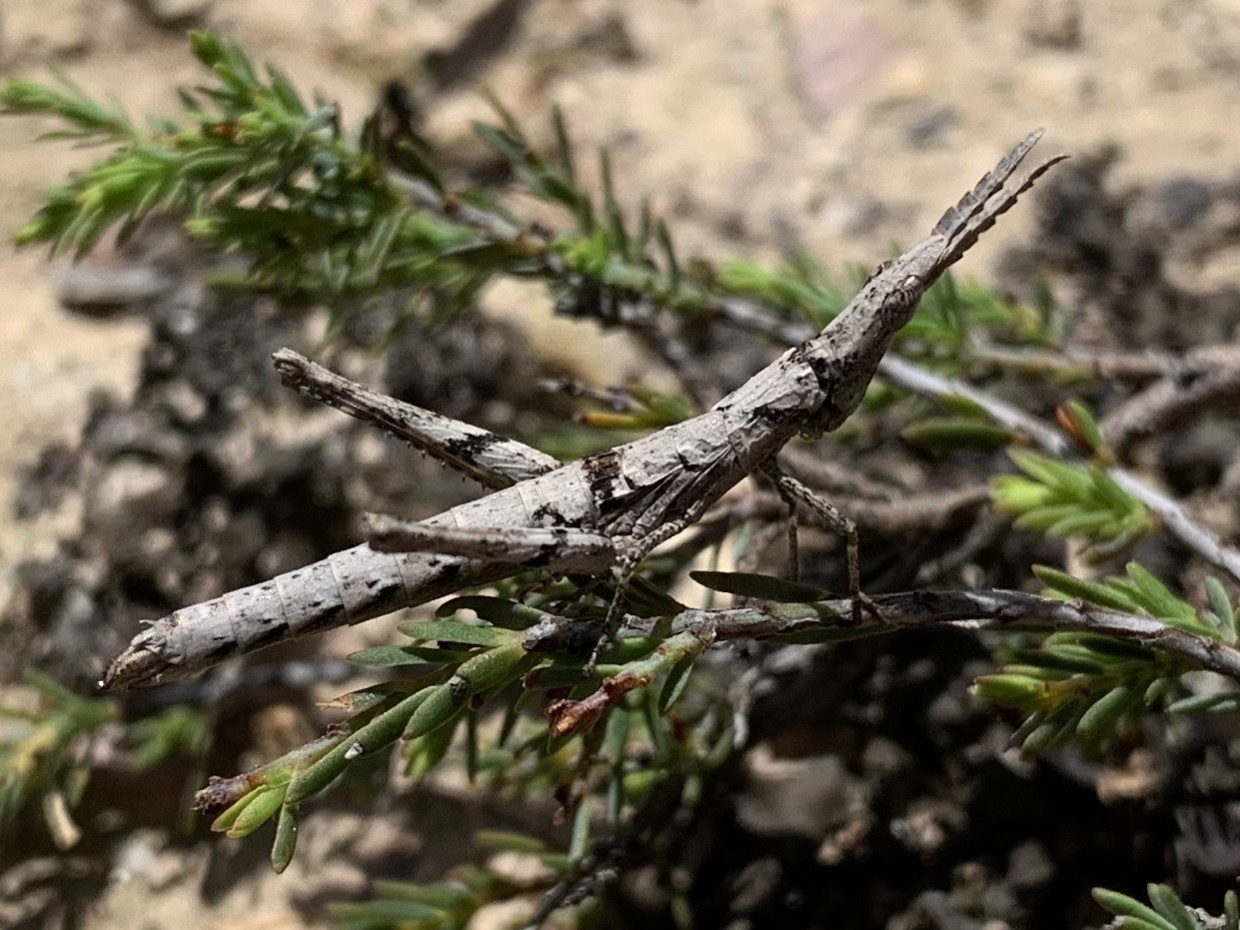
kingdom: Animalia
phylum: Arthropoda
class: Insecta
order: Orthoptera
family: Morabidae
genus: Vandiemenella
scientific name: Vandiemenella viatica
